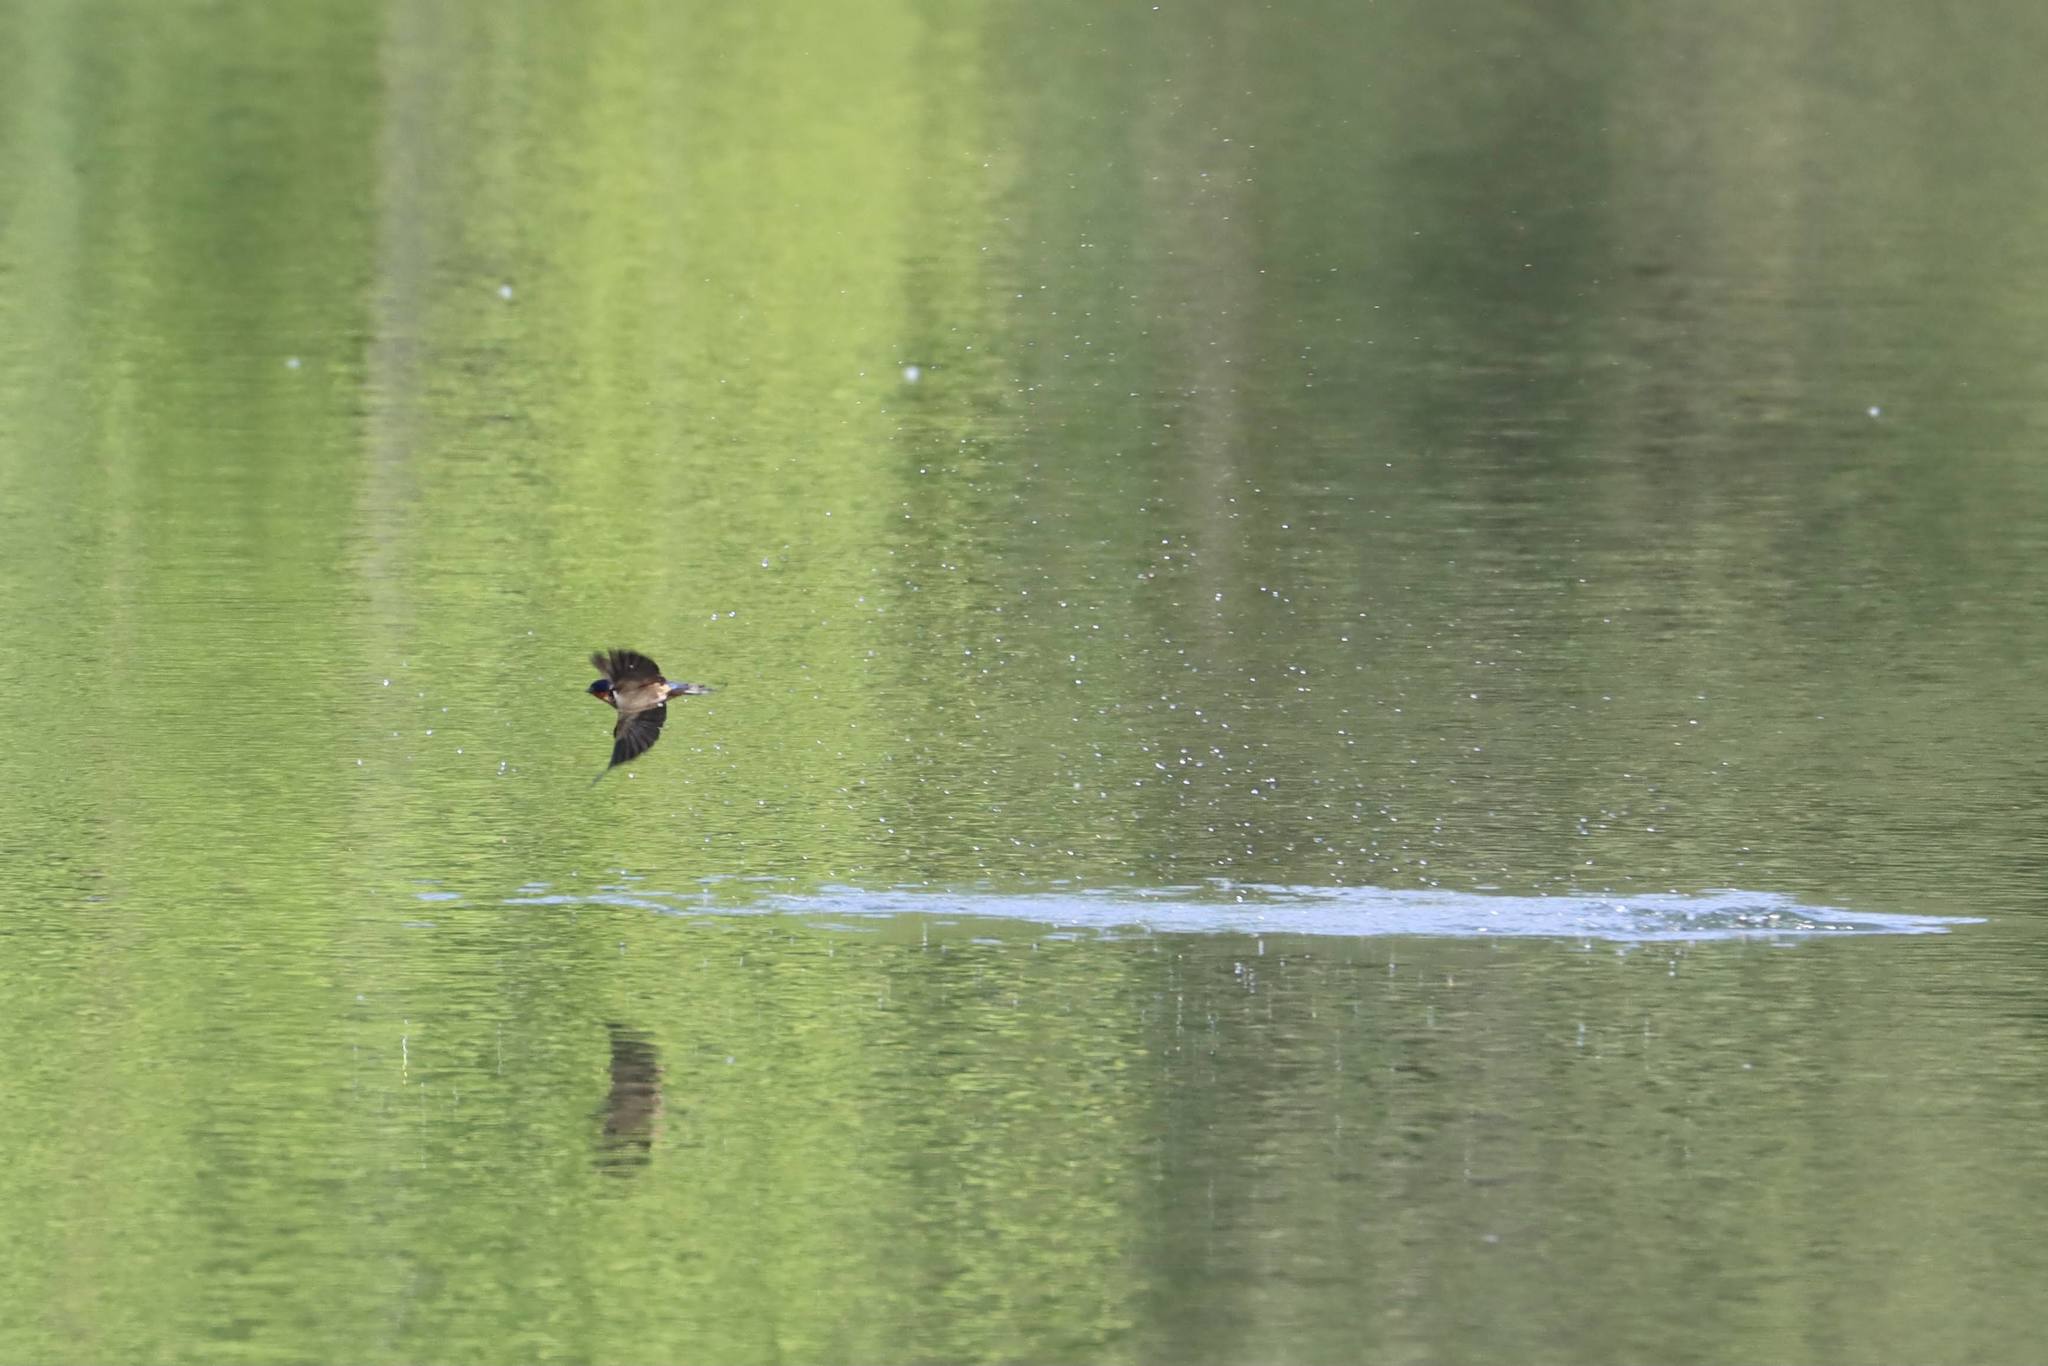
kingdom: Animalia
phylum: Chordata
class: Aves
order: Passeriformes
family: Hirundinidae
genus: Hirundo
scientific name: Hirundo rustica
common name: Barn swallow
